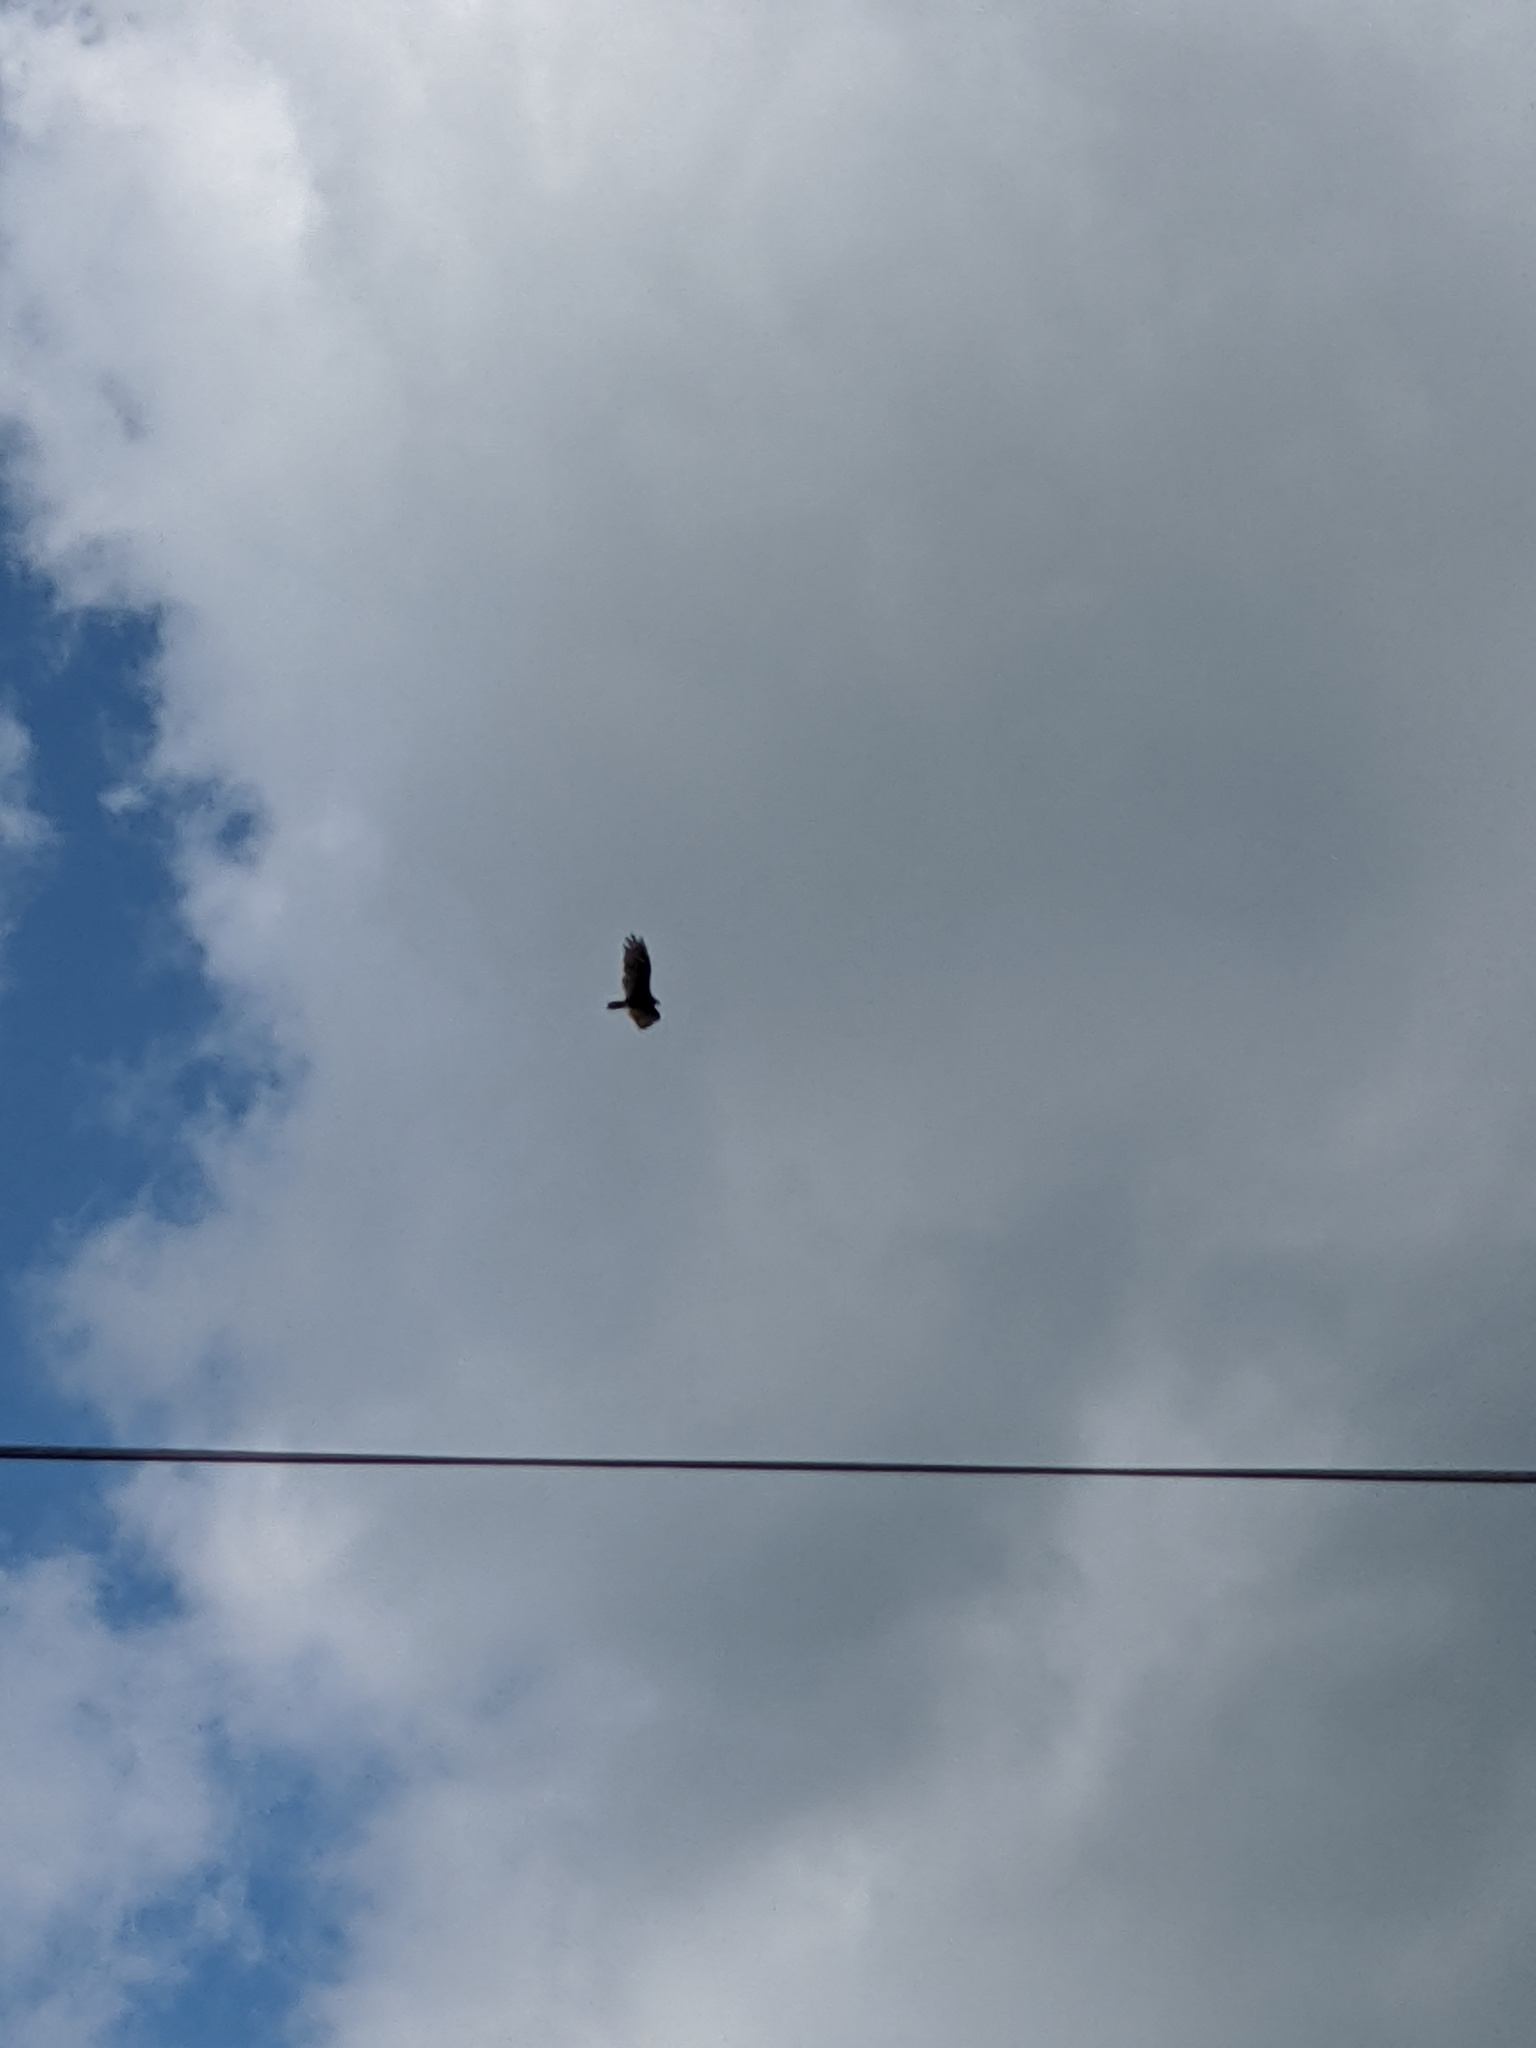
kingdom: Animalia
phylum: Chordata
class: Aves
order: Accipitriformes
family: Cathartidae
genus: Cathartes
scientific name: Cathartes aura
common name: Turkey vulture
